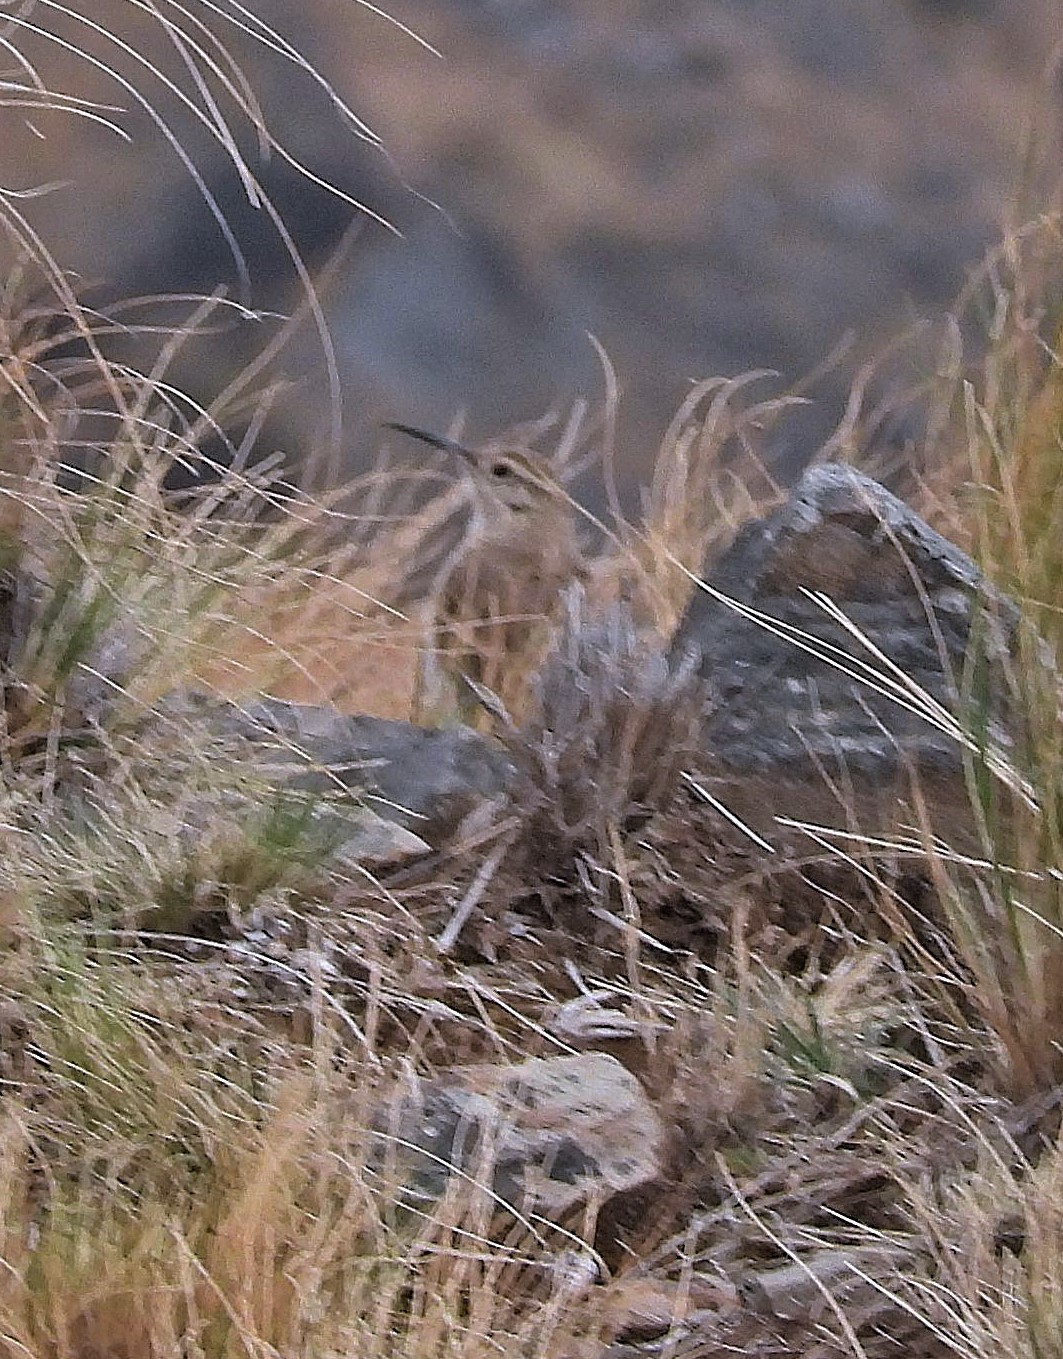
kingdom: Animalia
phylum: Chordata
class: Aves
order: Passeriformes
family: Furnariidae
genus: Geositta
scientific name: Geositta tenuirostris
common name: Slender-billed miner
